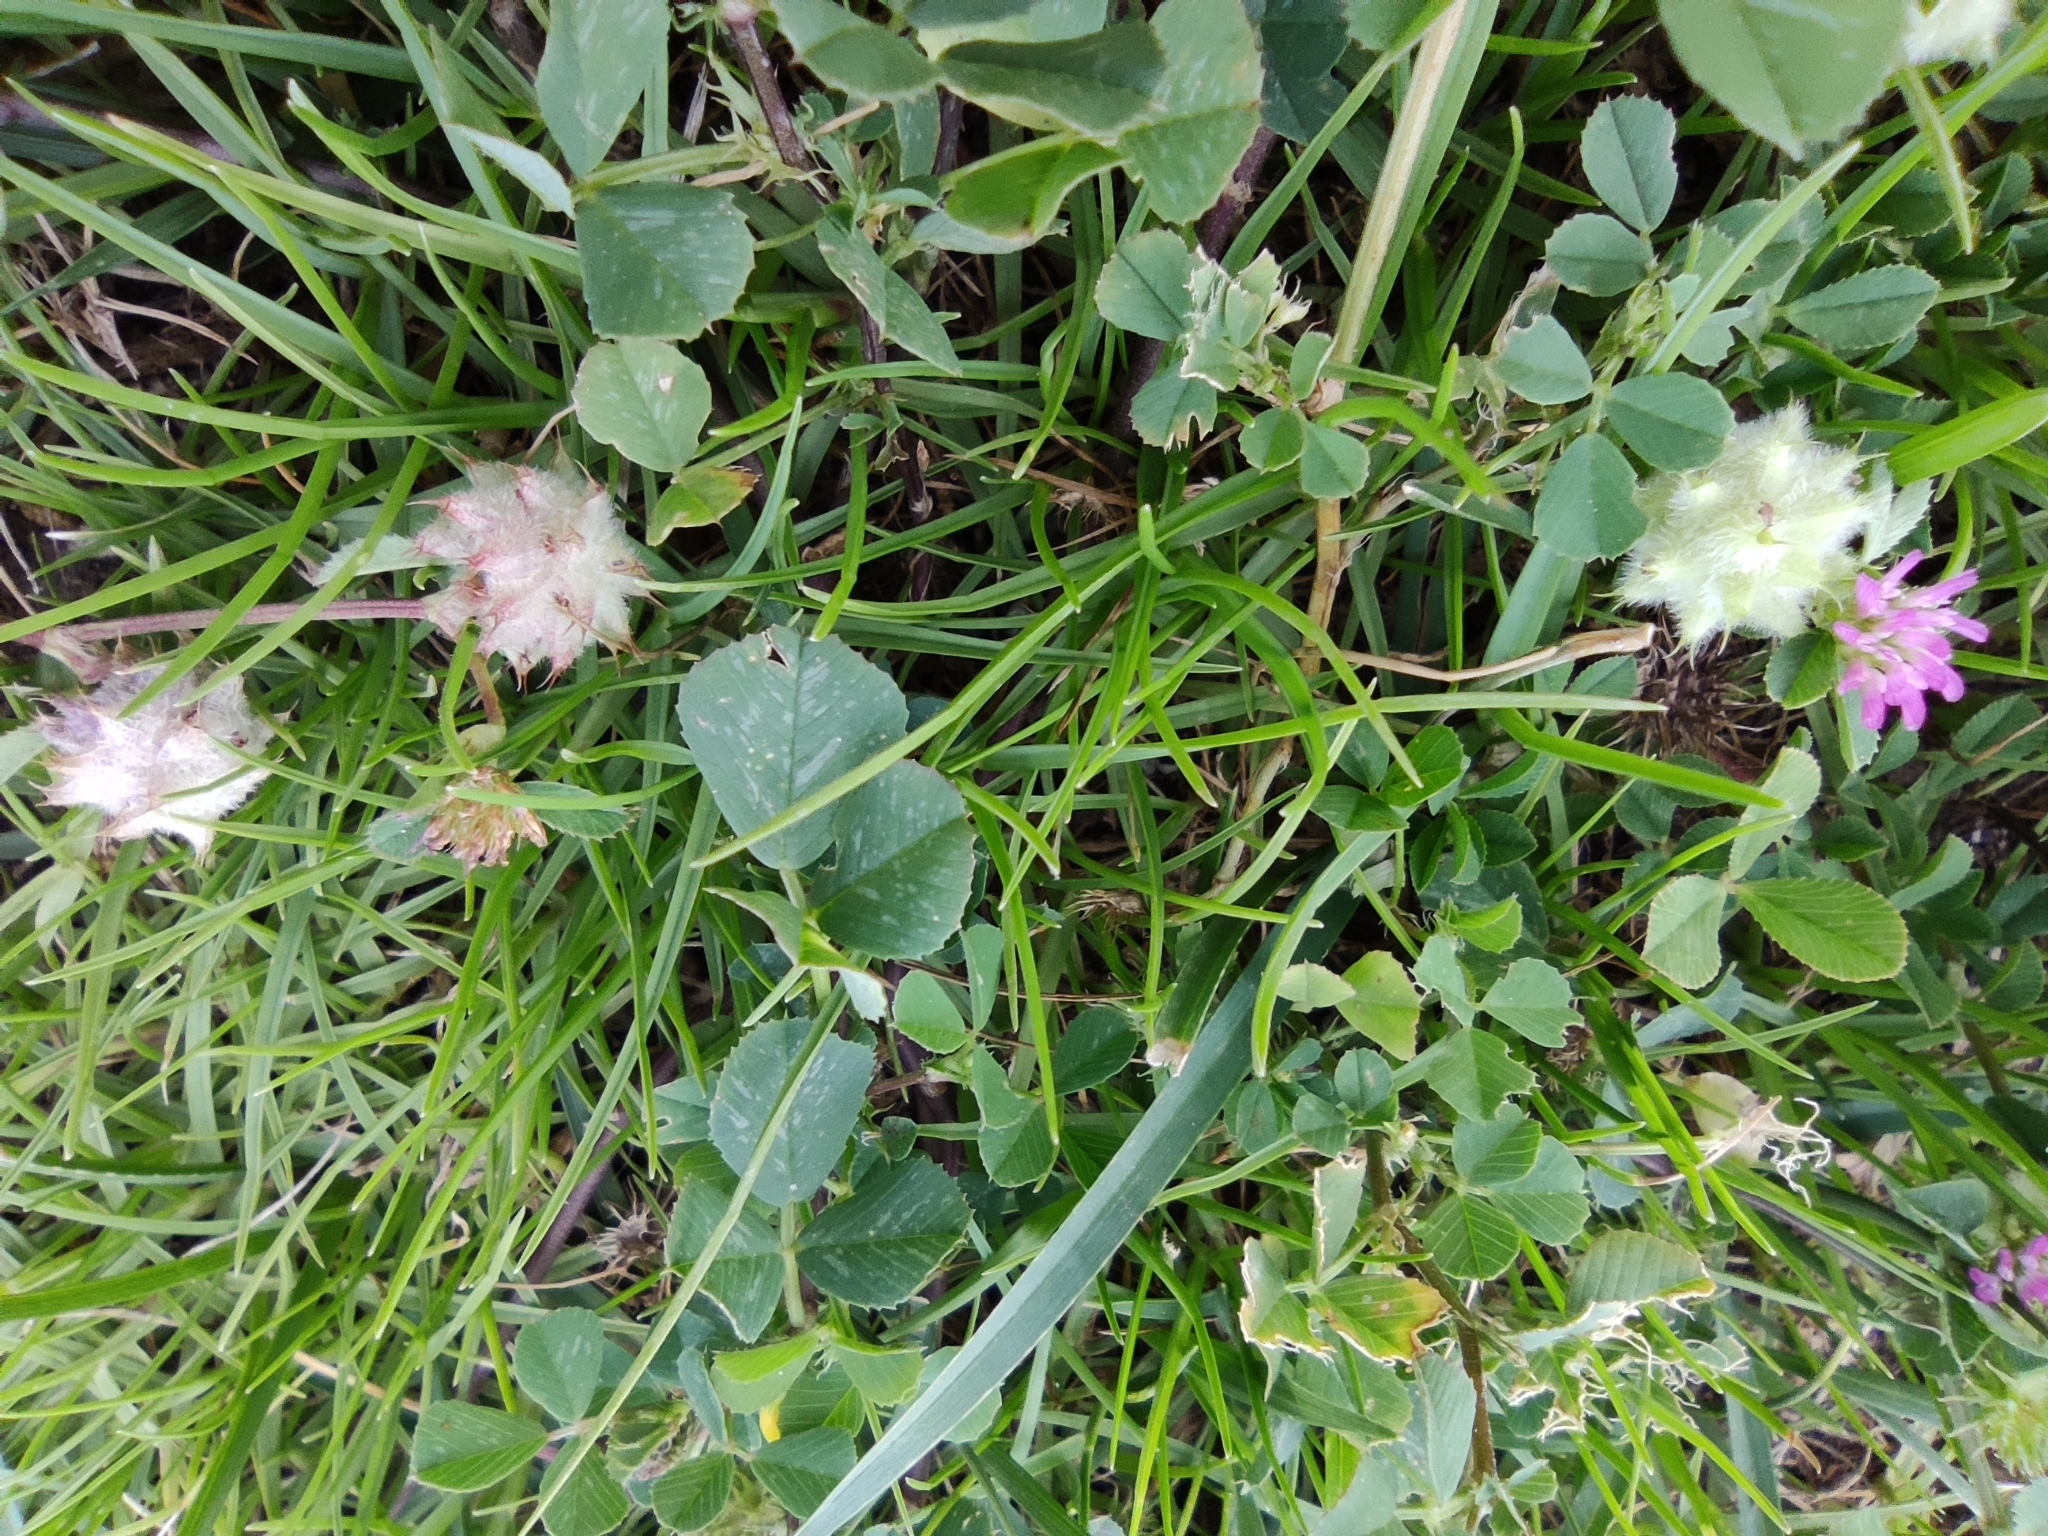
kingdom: Plantae
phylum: Tracheophyta
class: Magnoliopsida
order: Fabales
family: Fabaceae
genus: Trifolium
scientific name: Trifolium resupinatum
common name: Reversed clover
